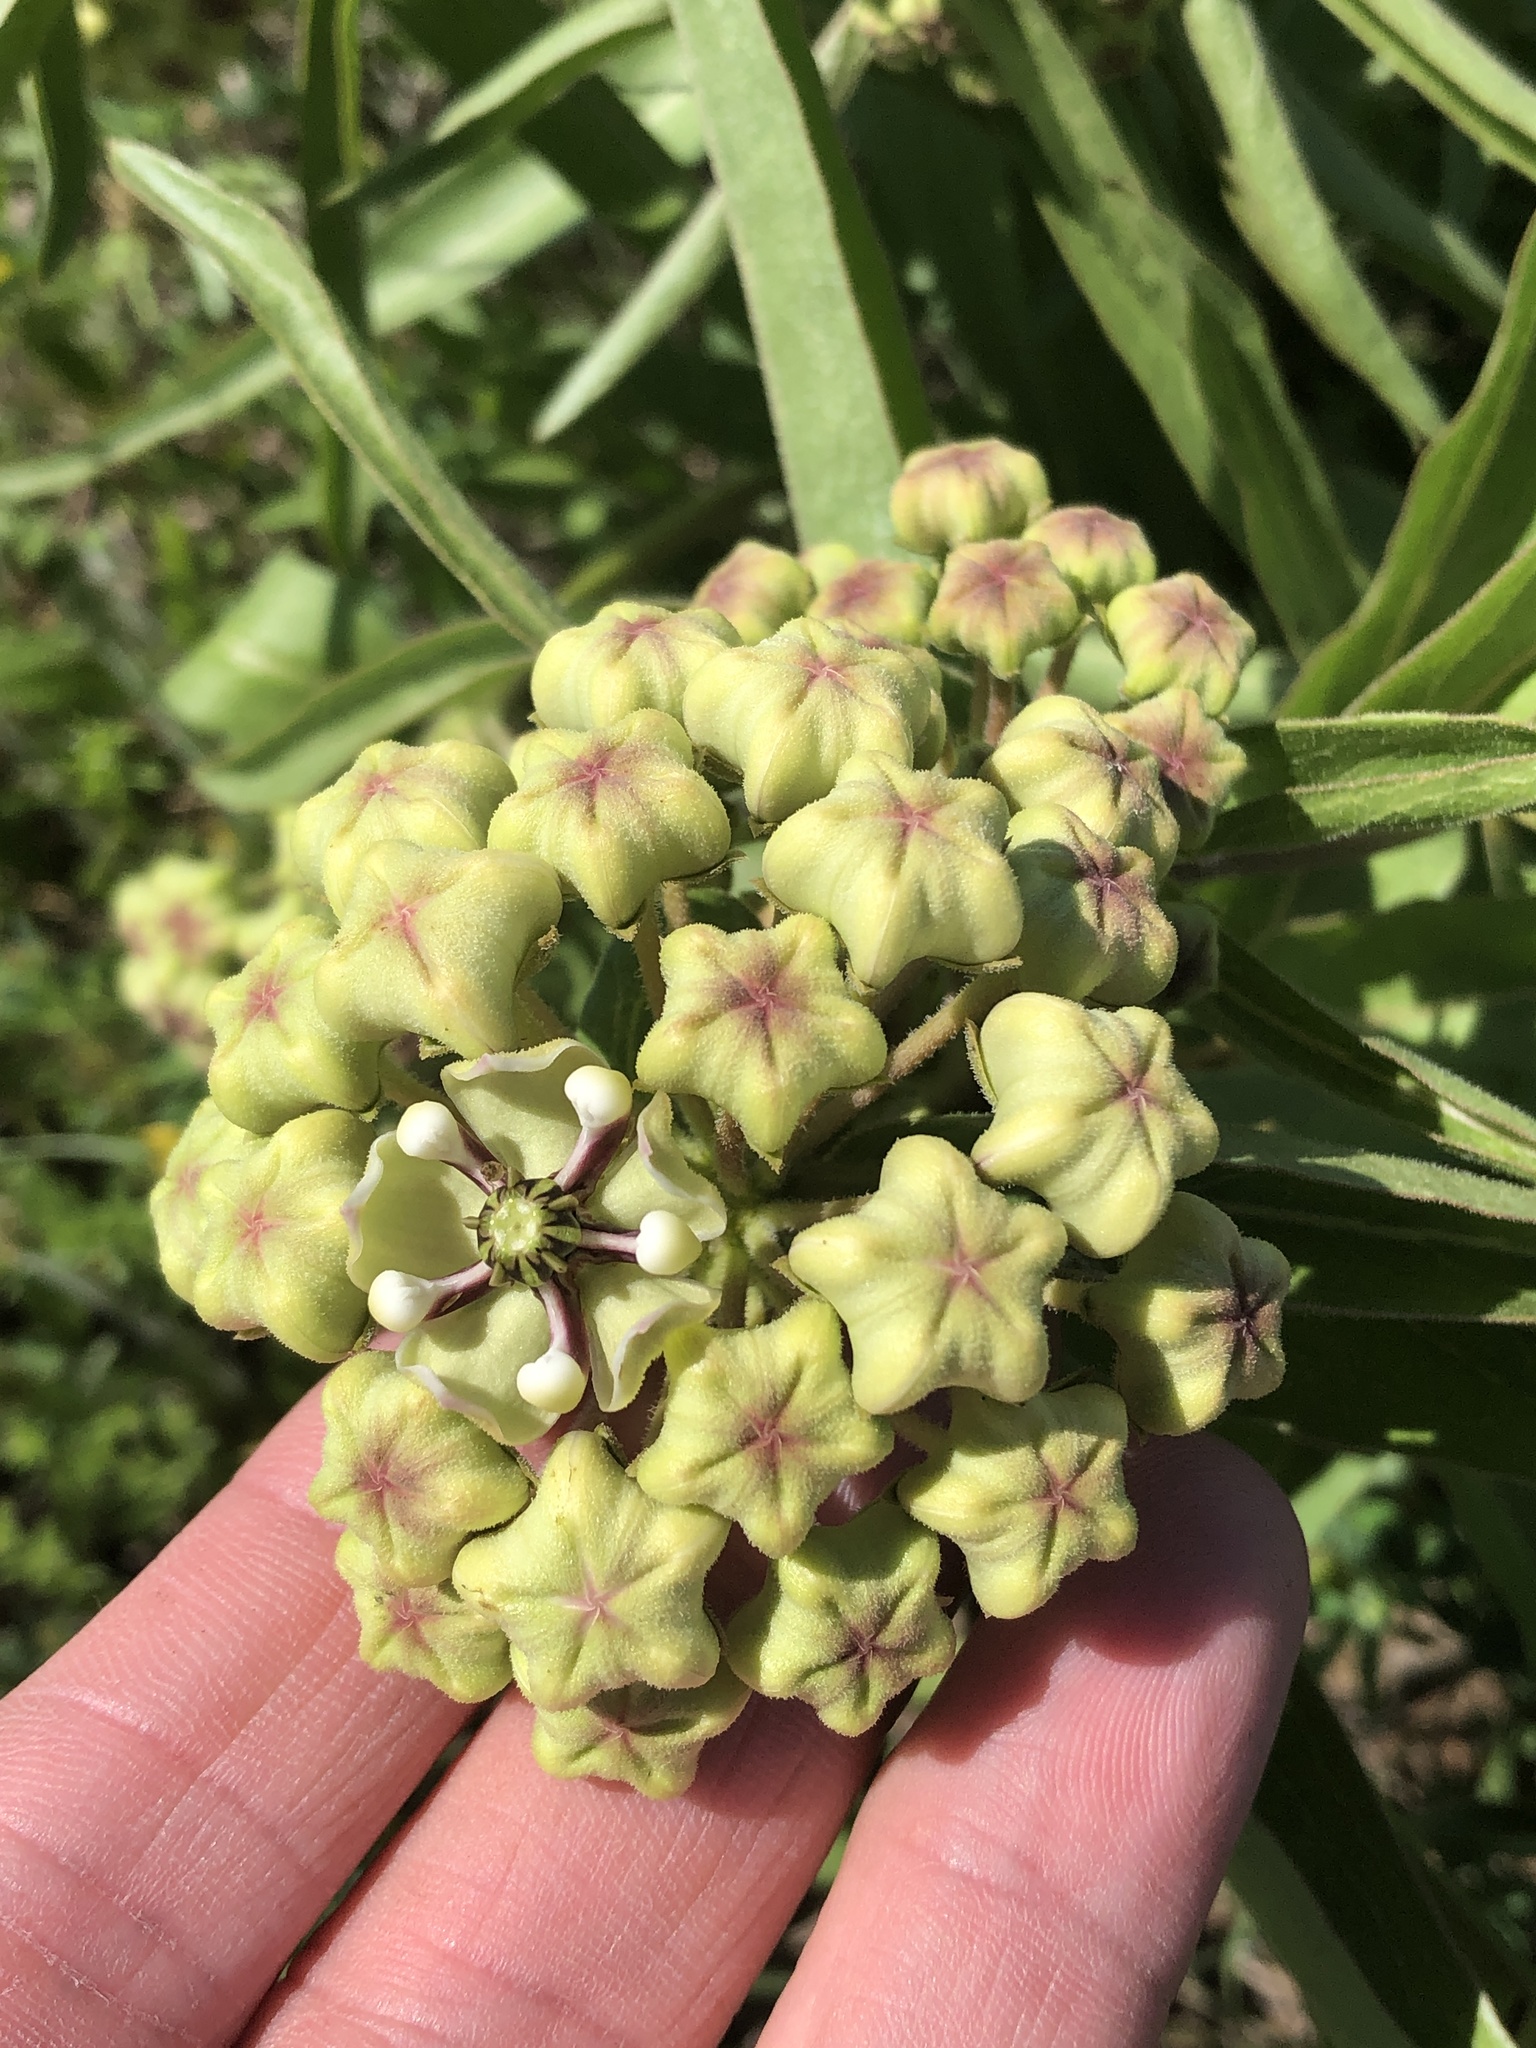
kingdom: Plantae
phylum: Tracheophyta
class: Magnoliopsida
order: Gentianales
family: Apocynaceae
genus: Asclepias
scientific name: Asclepias asperula
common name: Antelope horns
